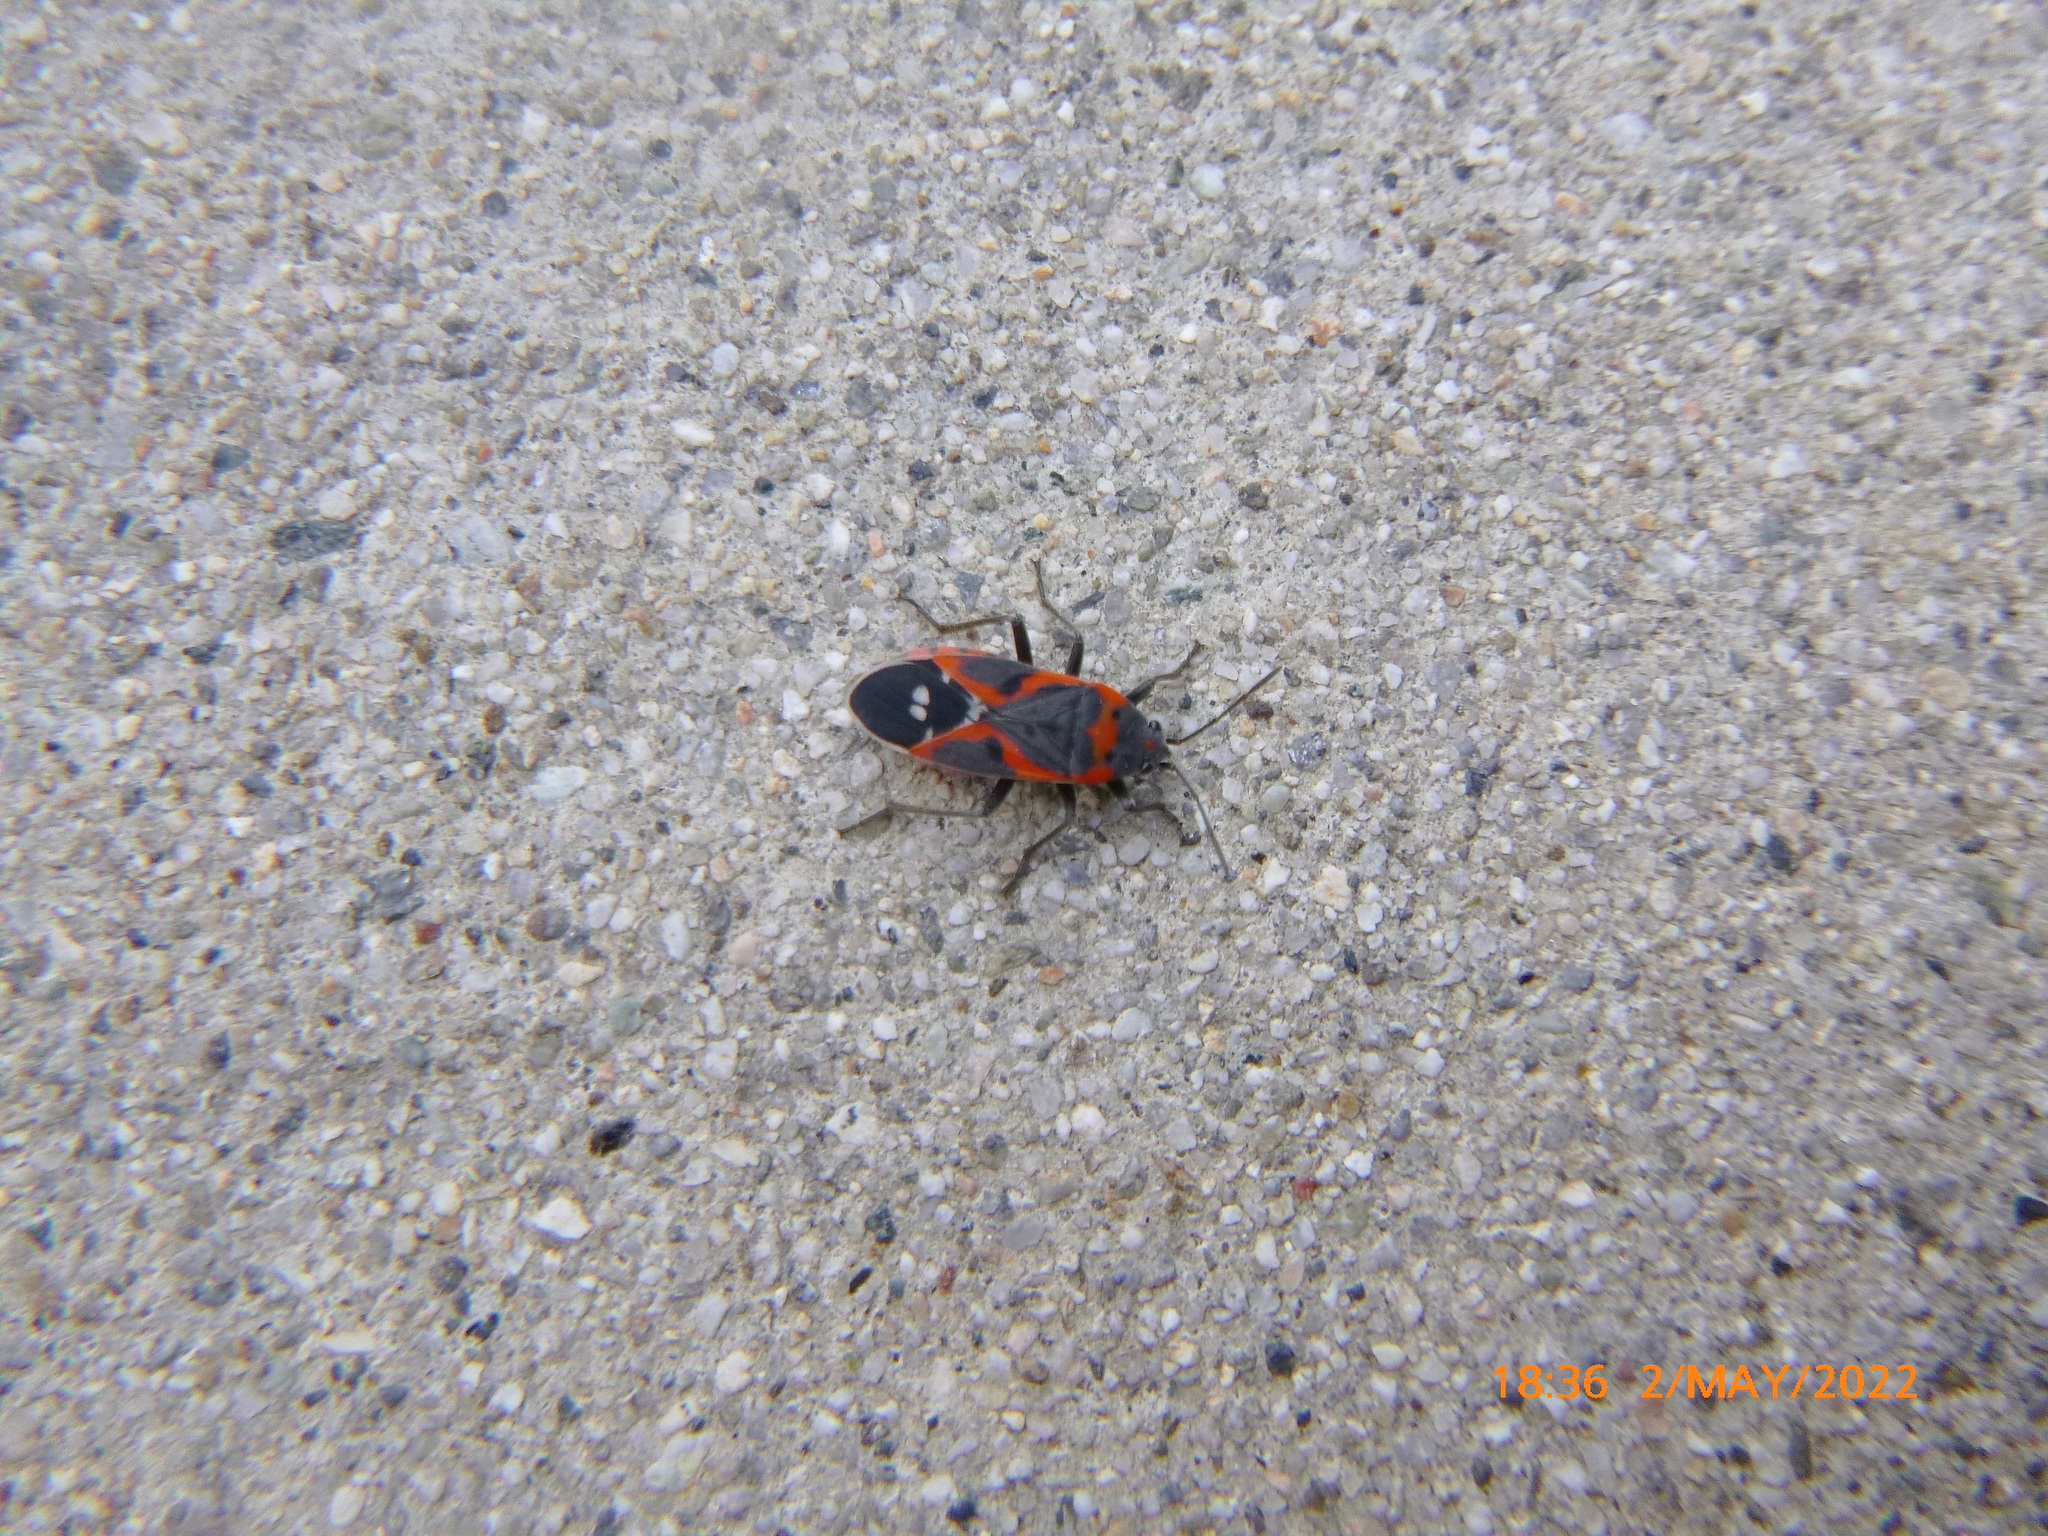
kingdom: Animalia
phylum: Arthropoda
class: Insecta
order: Hemiptera
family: Lygaeidae
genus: Lygaeus
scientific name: Lygaeus kalmii
